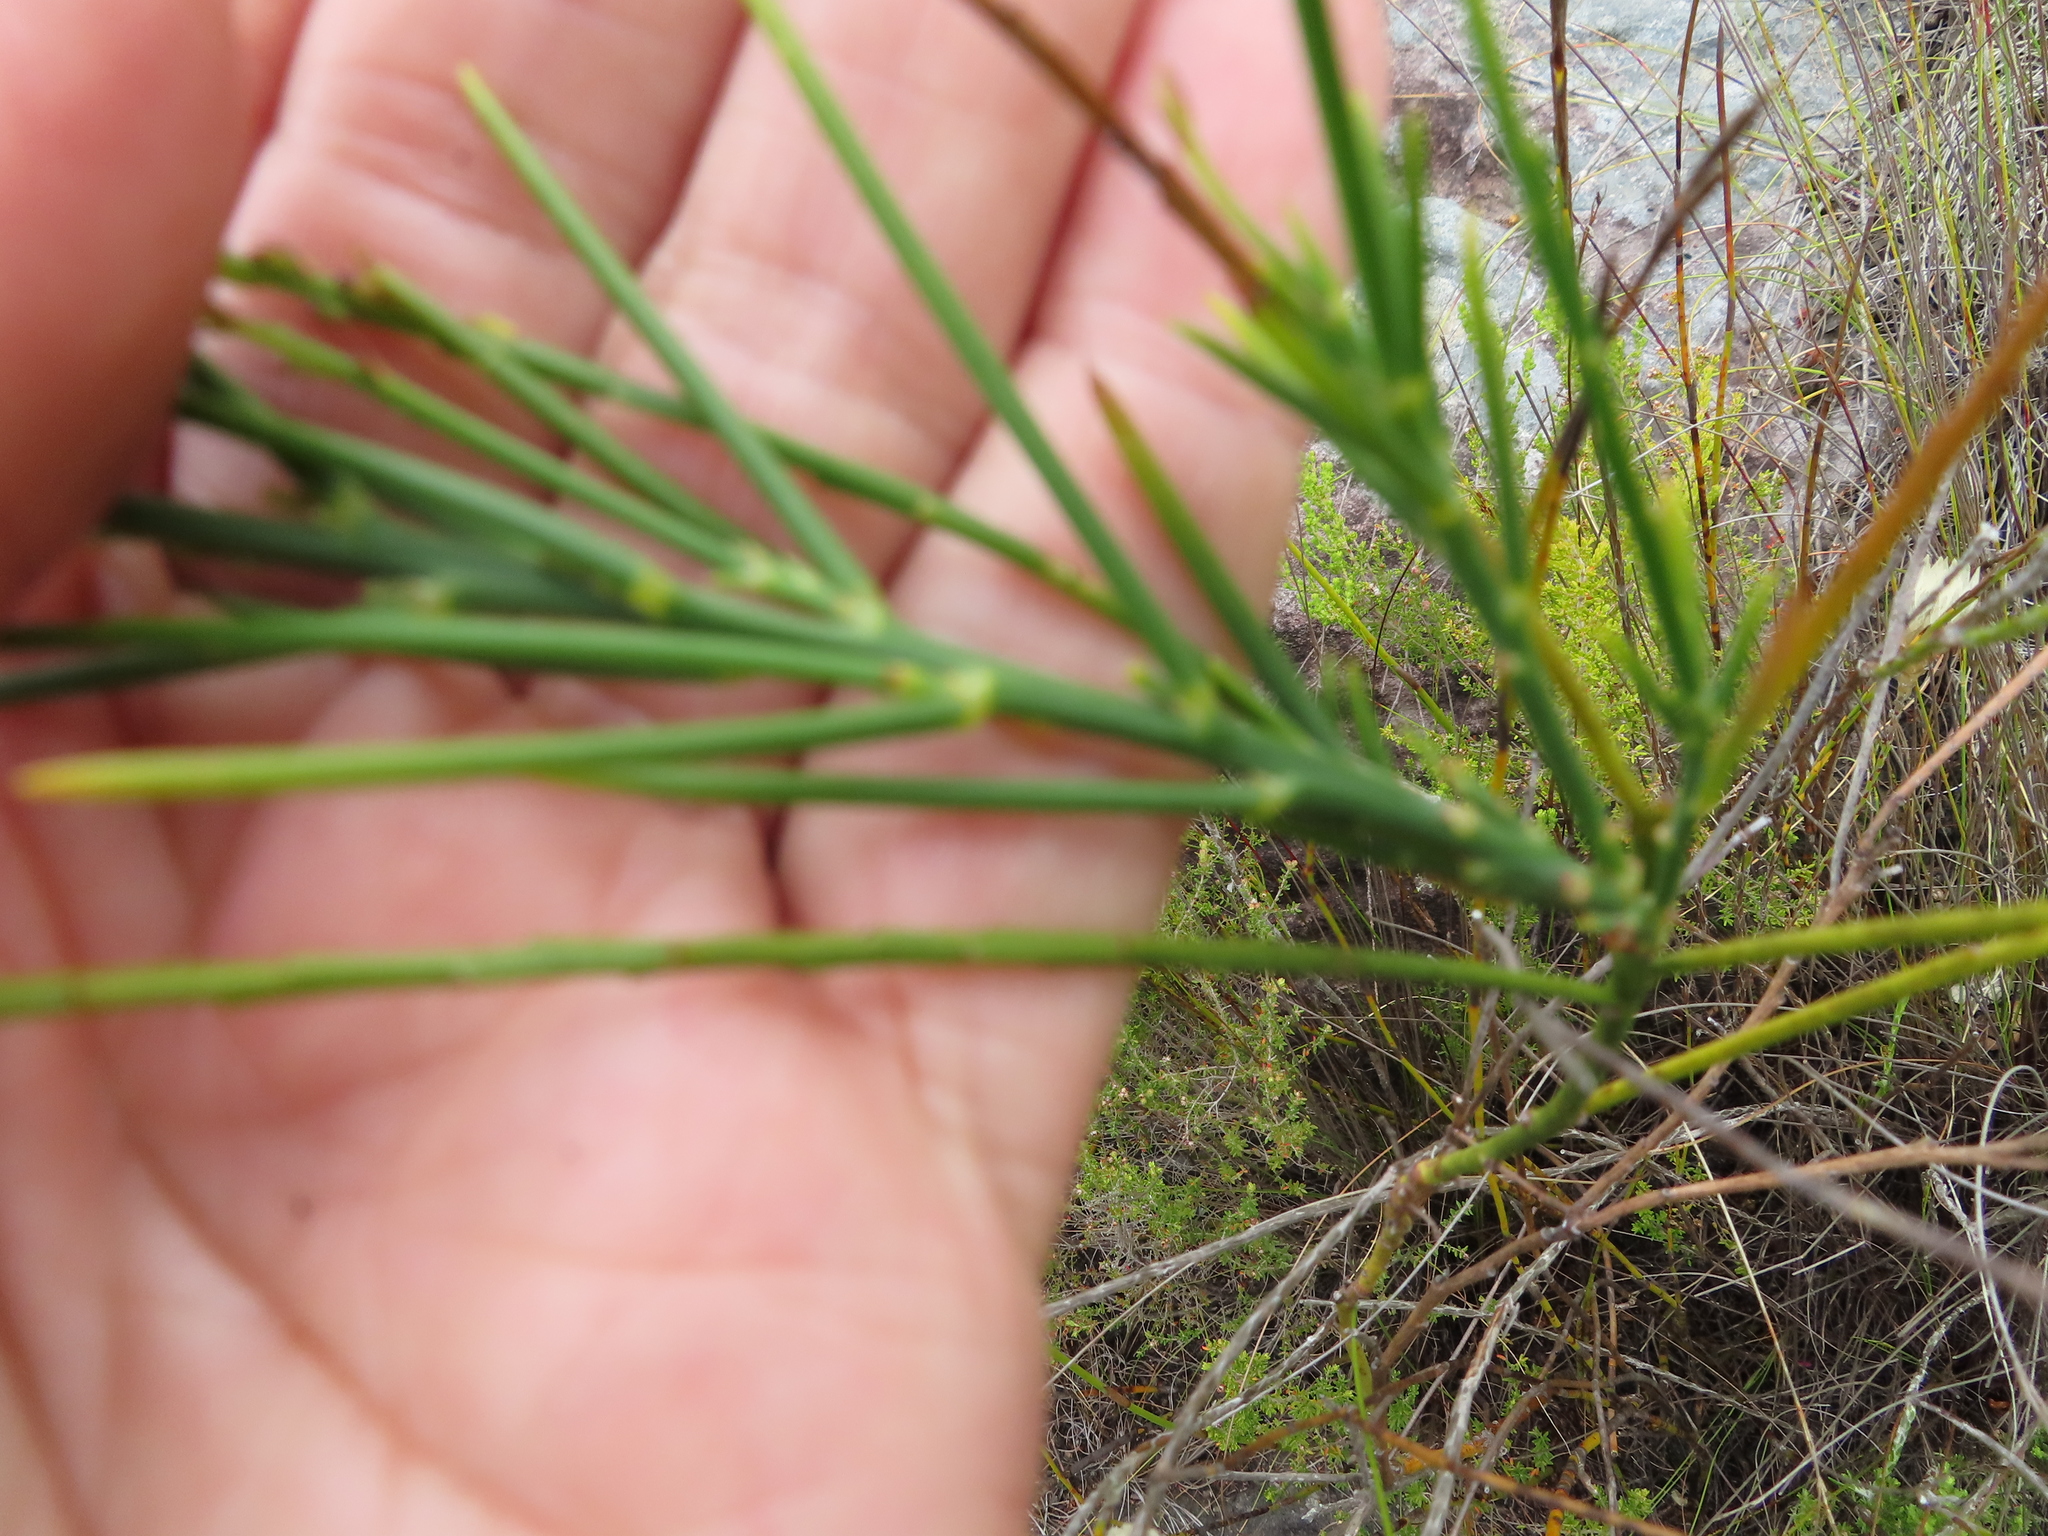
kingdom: Plantae
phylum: Tracheophyta
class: Magnoliopsida
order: Fabales
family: Fabaceae
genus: Indigofera
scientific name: Indigofera filifolia
